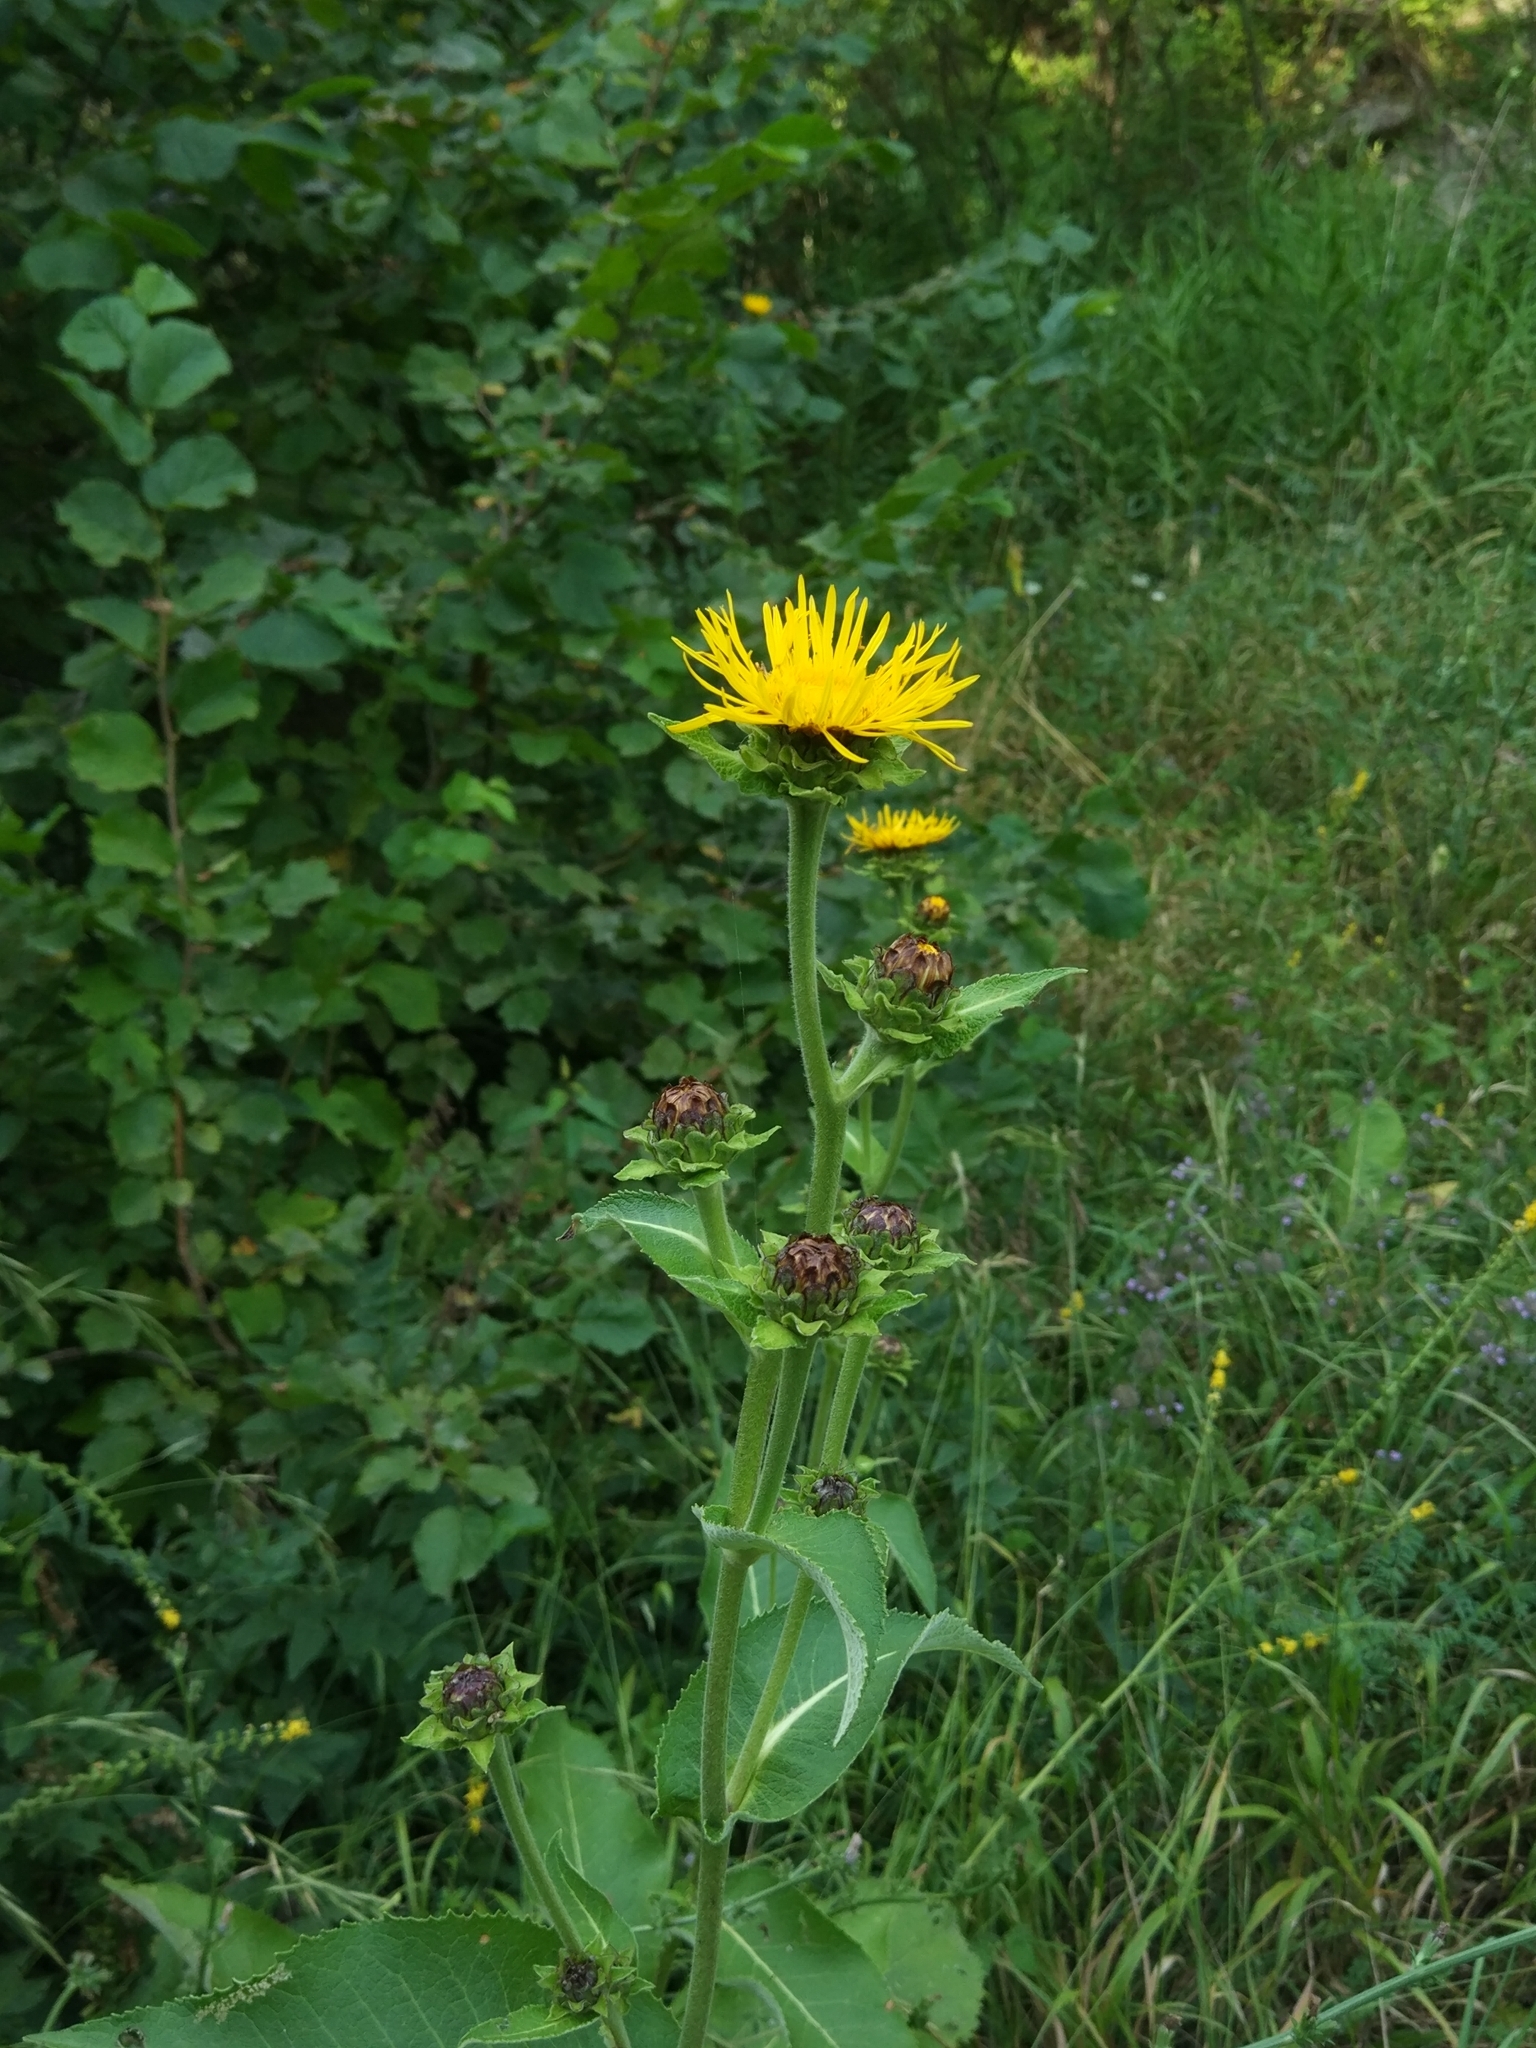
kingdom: Plantae
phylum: Tracheophyta
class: Magnoliopsida
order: Asterales
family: Asteraceae
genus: Inula
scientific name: Inula helenium
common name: Elecampane
